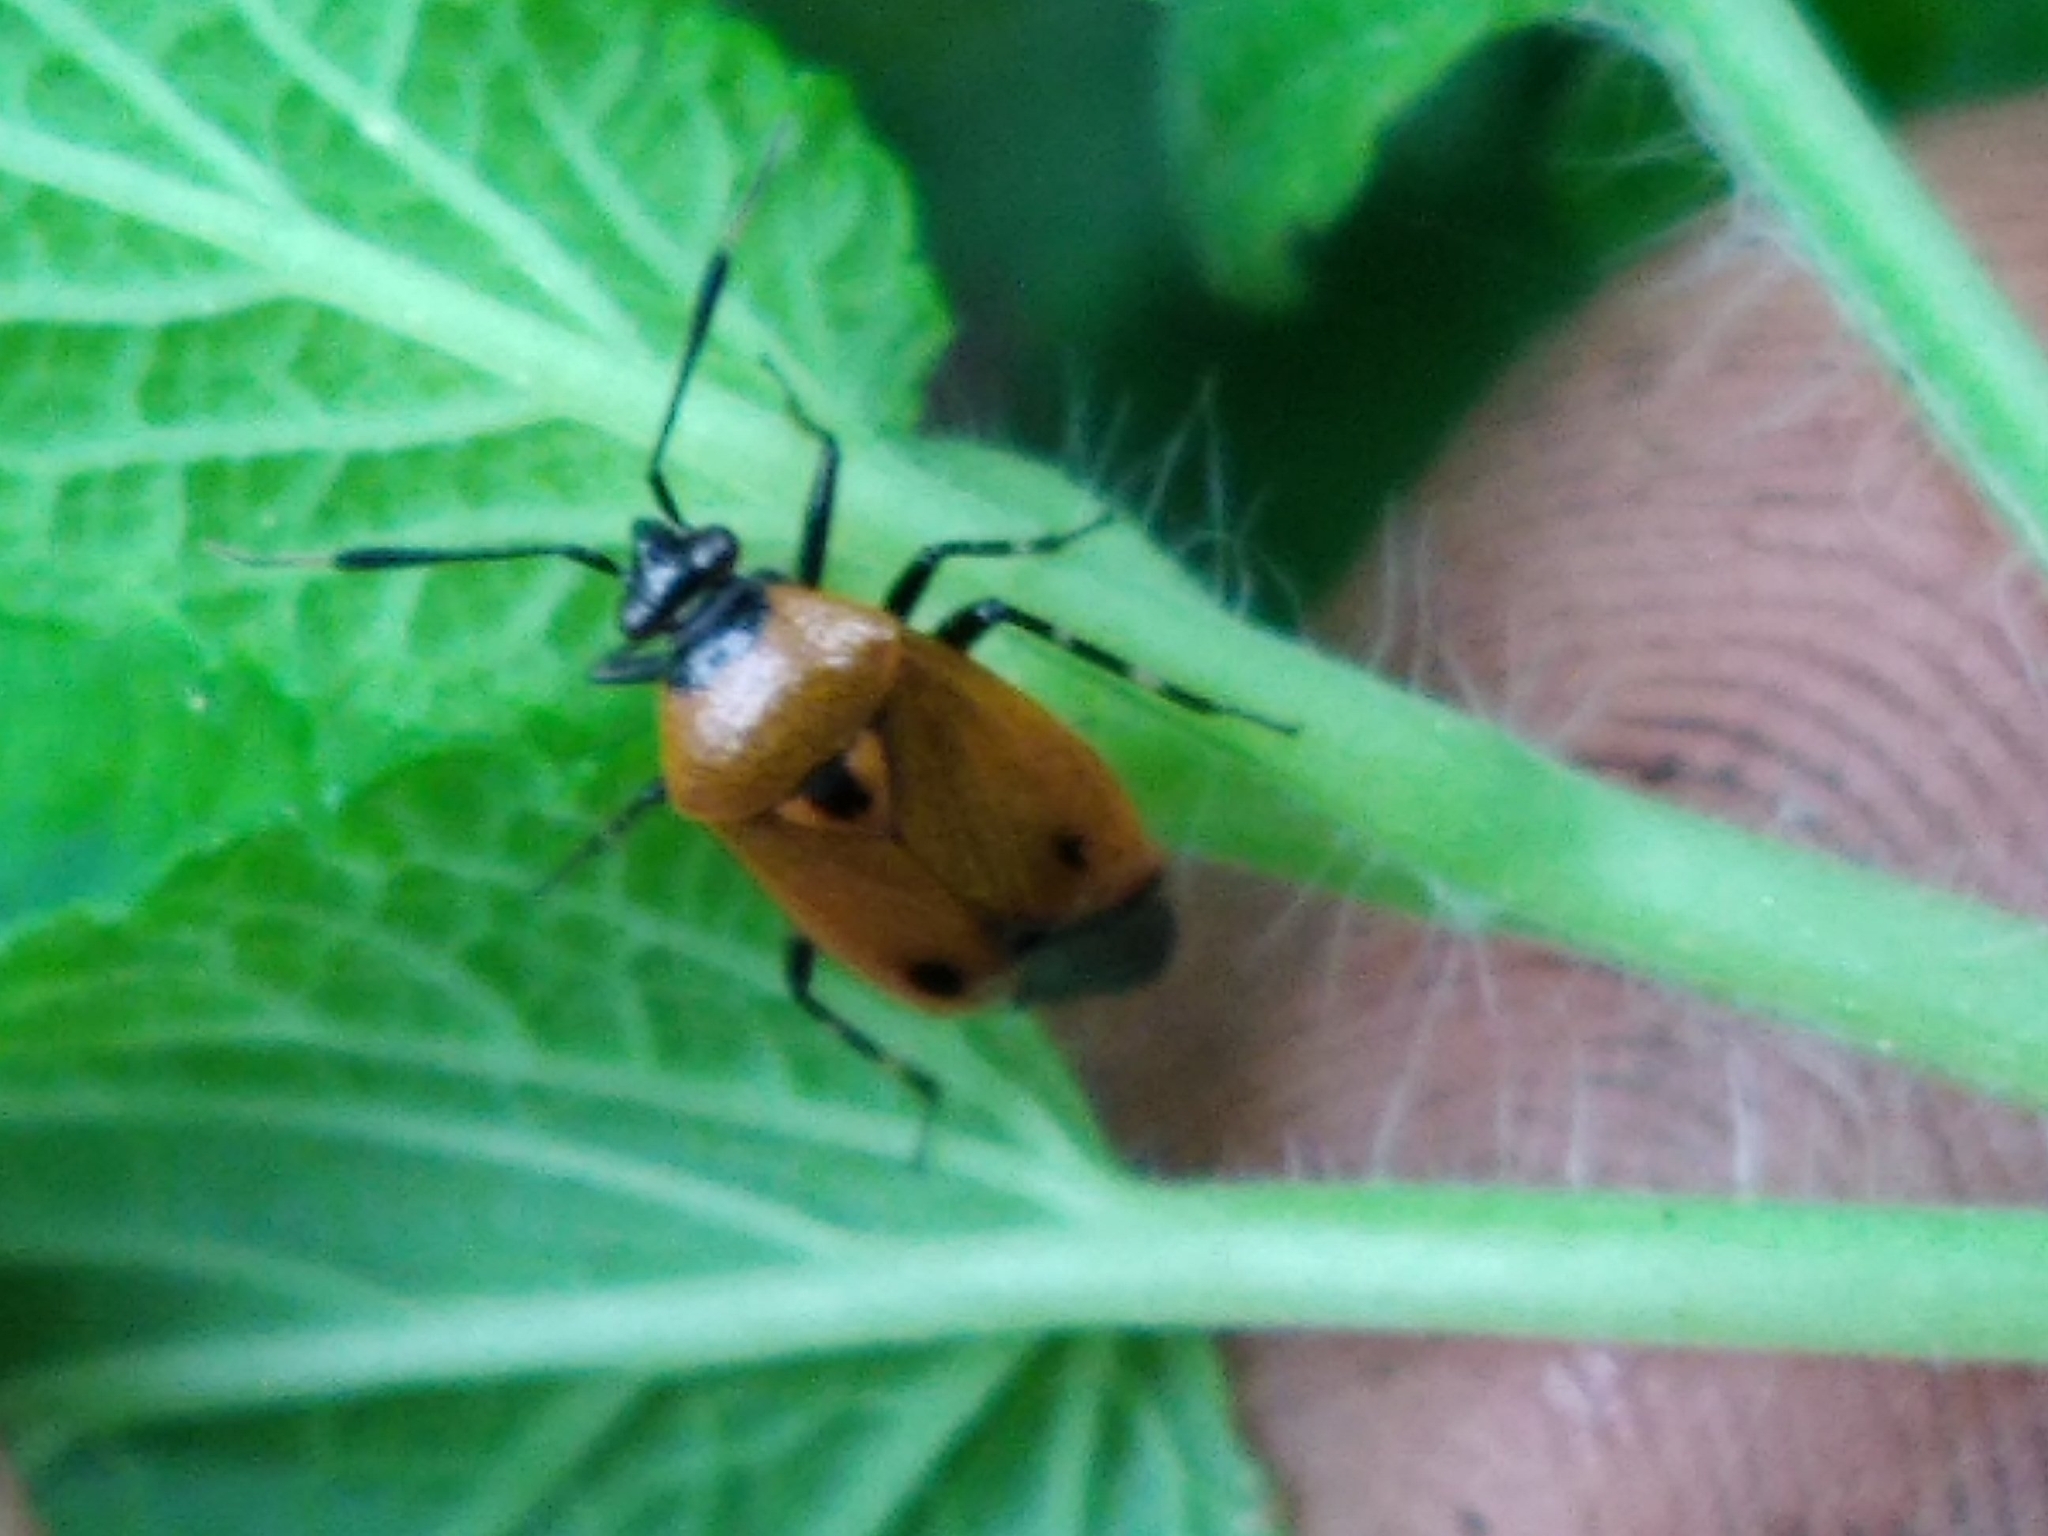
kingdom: Animalia
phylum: Arthropoda
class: Insecta
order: Hemiptera
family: Miridae
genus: Deraeocoris
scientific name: Deraeocoris punctum
